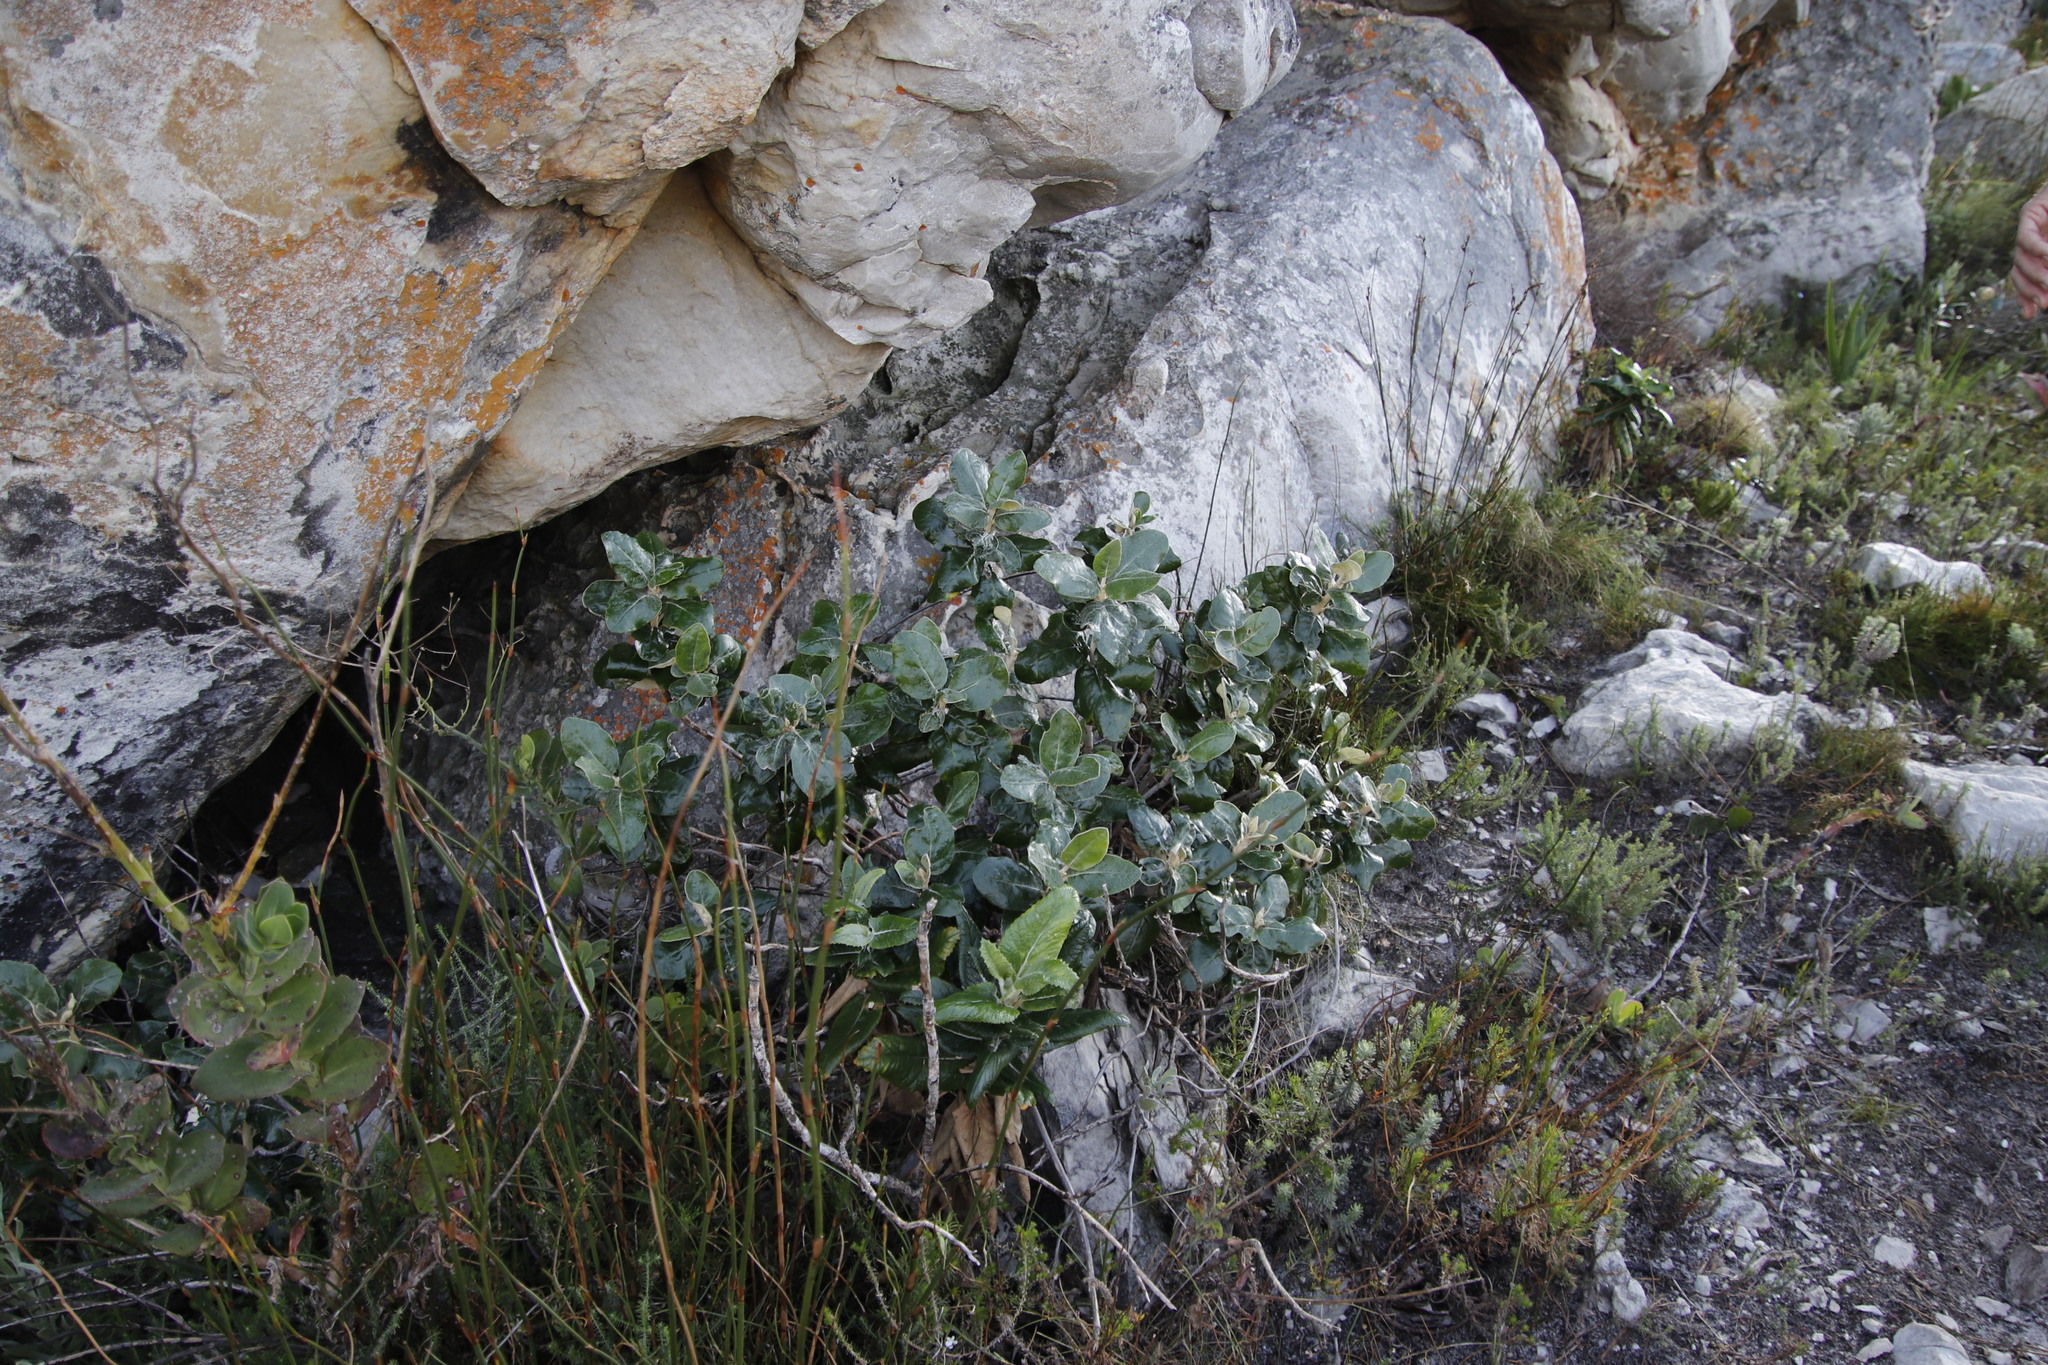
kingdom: Plantae
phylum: Tracheophyta
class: Magnoliopsida
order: Asterales
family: Asteraceae
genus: Capelio
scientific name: Capelio tabularis
